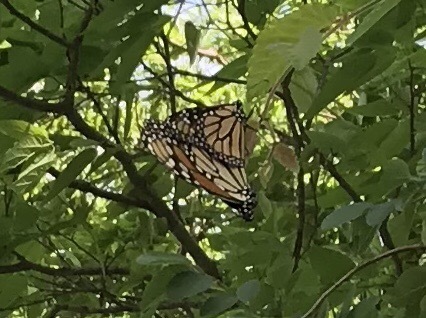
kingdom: Animalia
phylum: Arthropoda
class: Insecta
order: Lepidoptera
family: Nymphalidae
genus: Danaus
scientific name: Danaus plexippus
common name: Monarch
